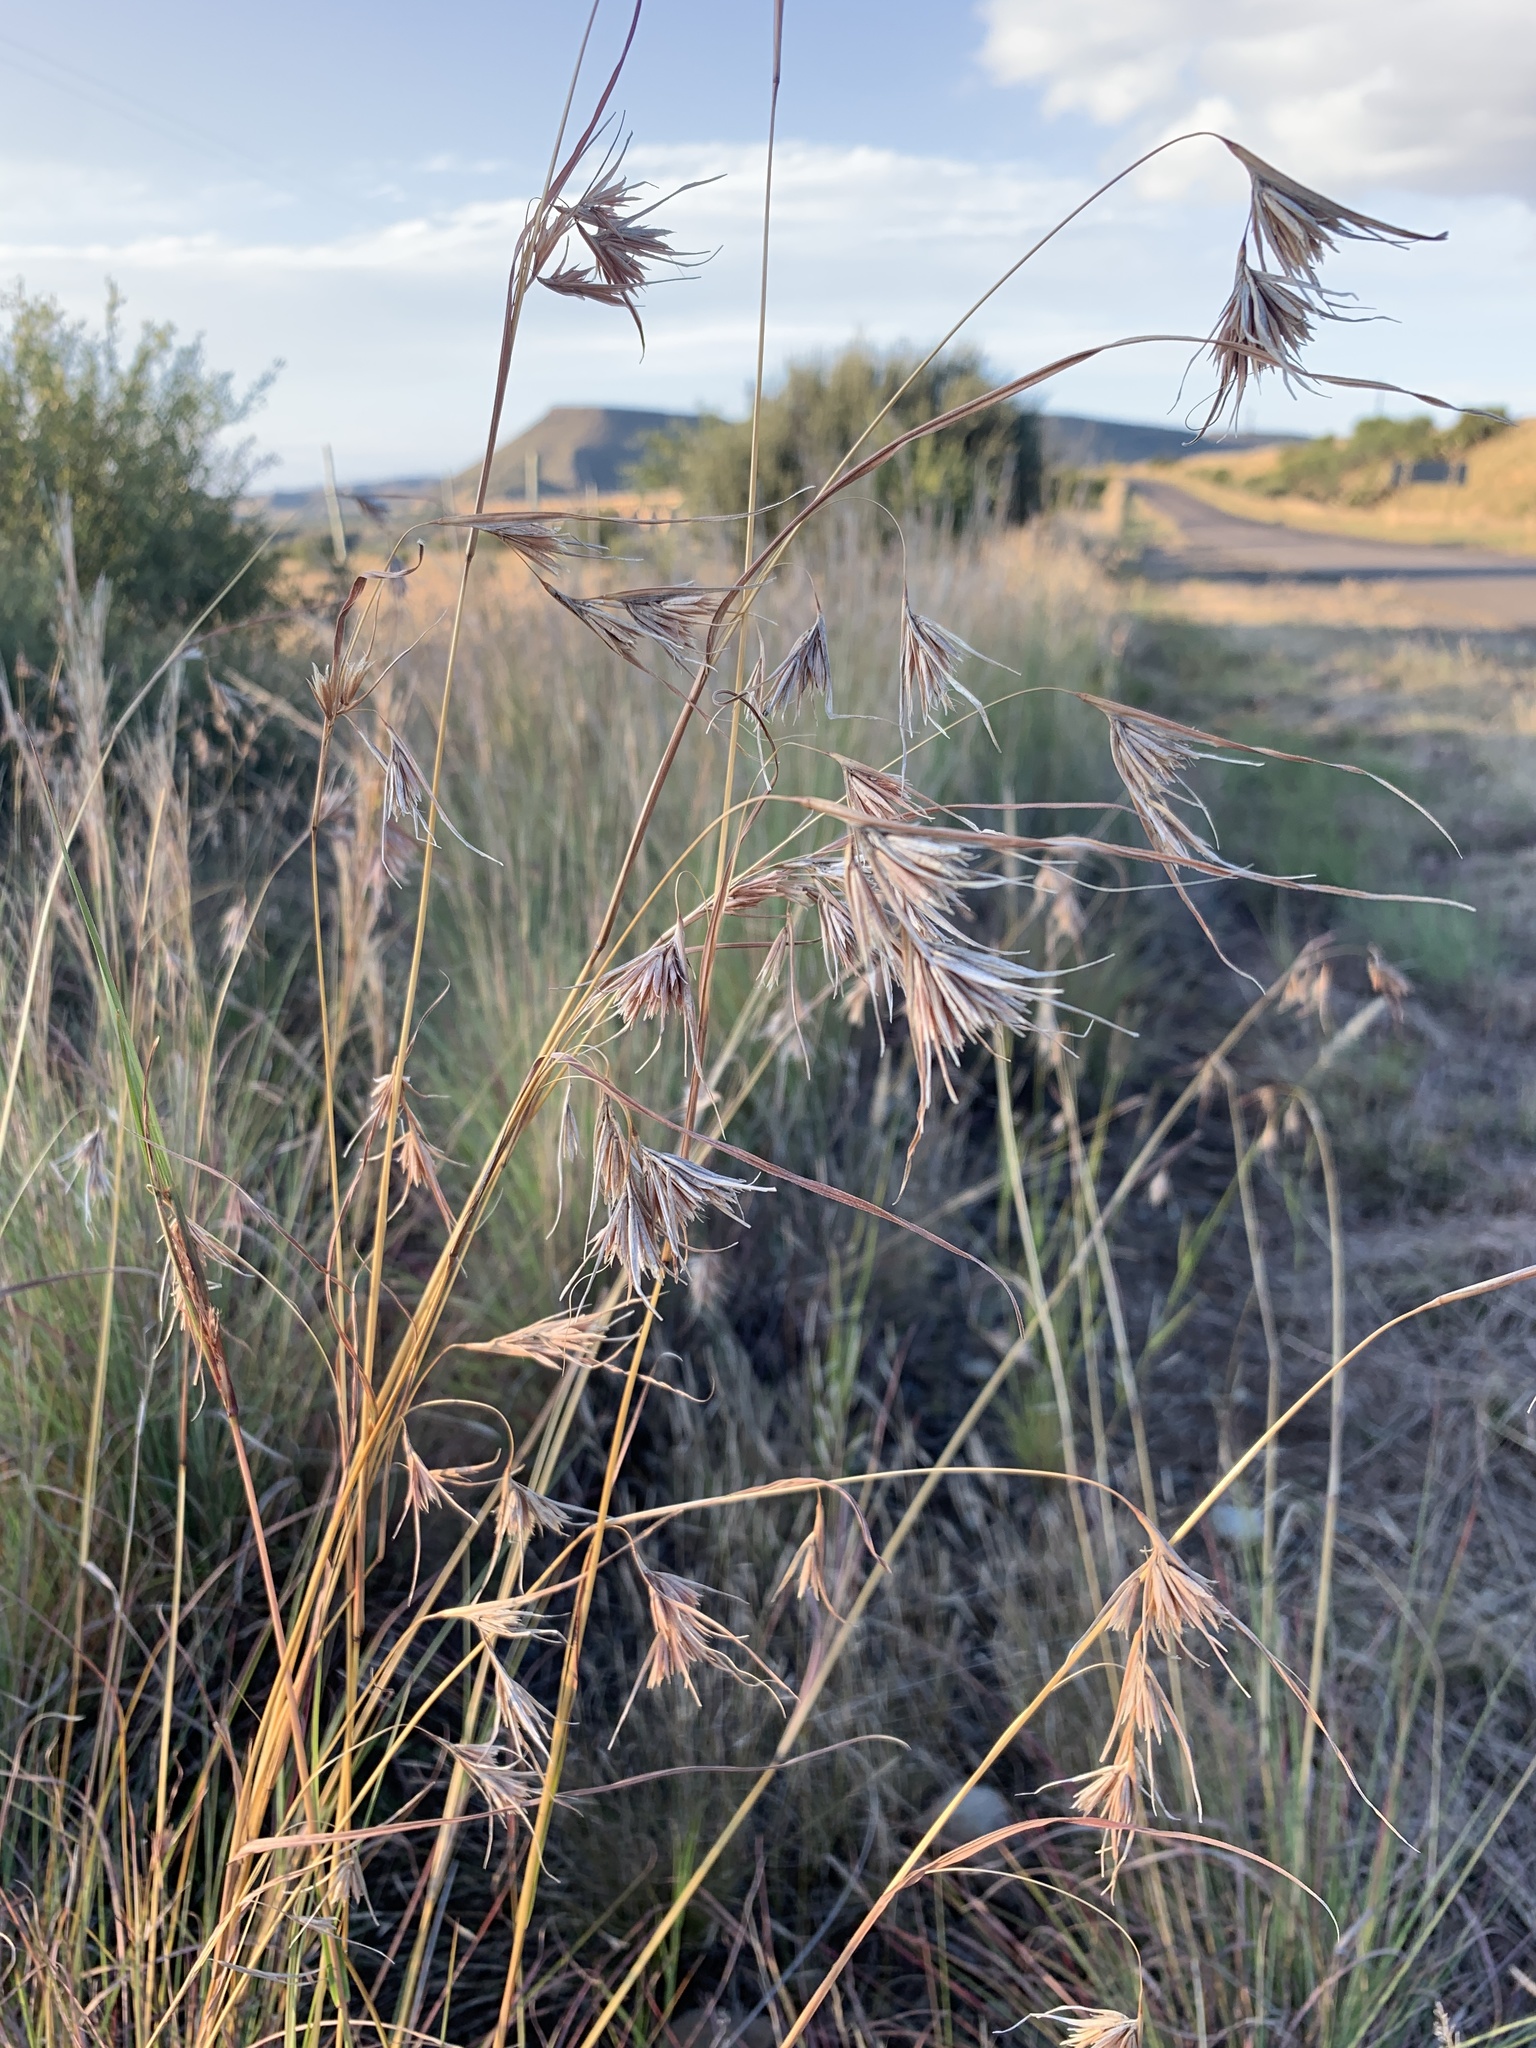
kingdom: Plantae
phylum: Tracheophyta
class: Liliopsida
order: Poales
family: Poaceae
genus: Themeda
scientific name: Themeda triandra
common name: Kangaroo grass
